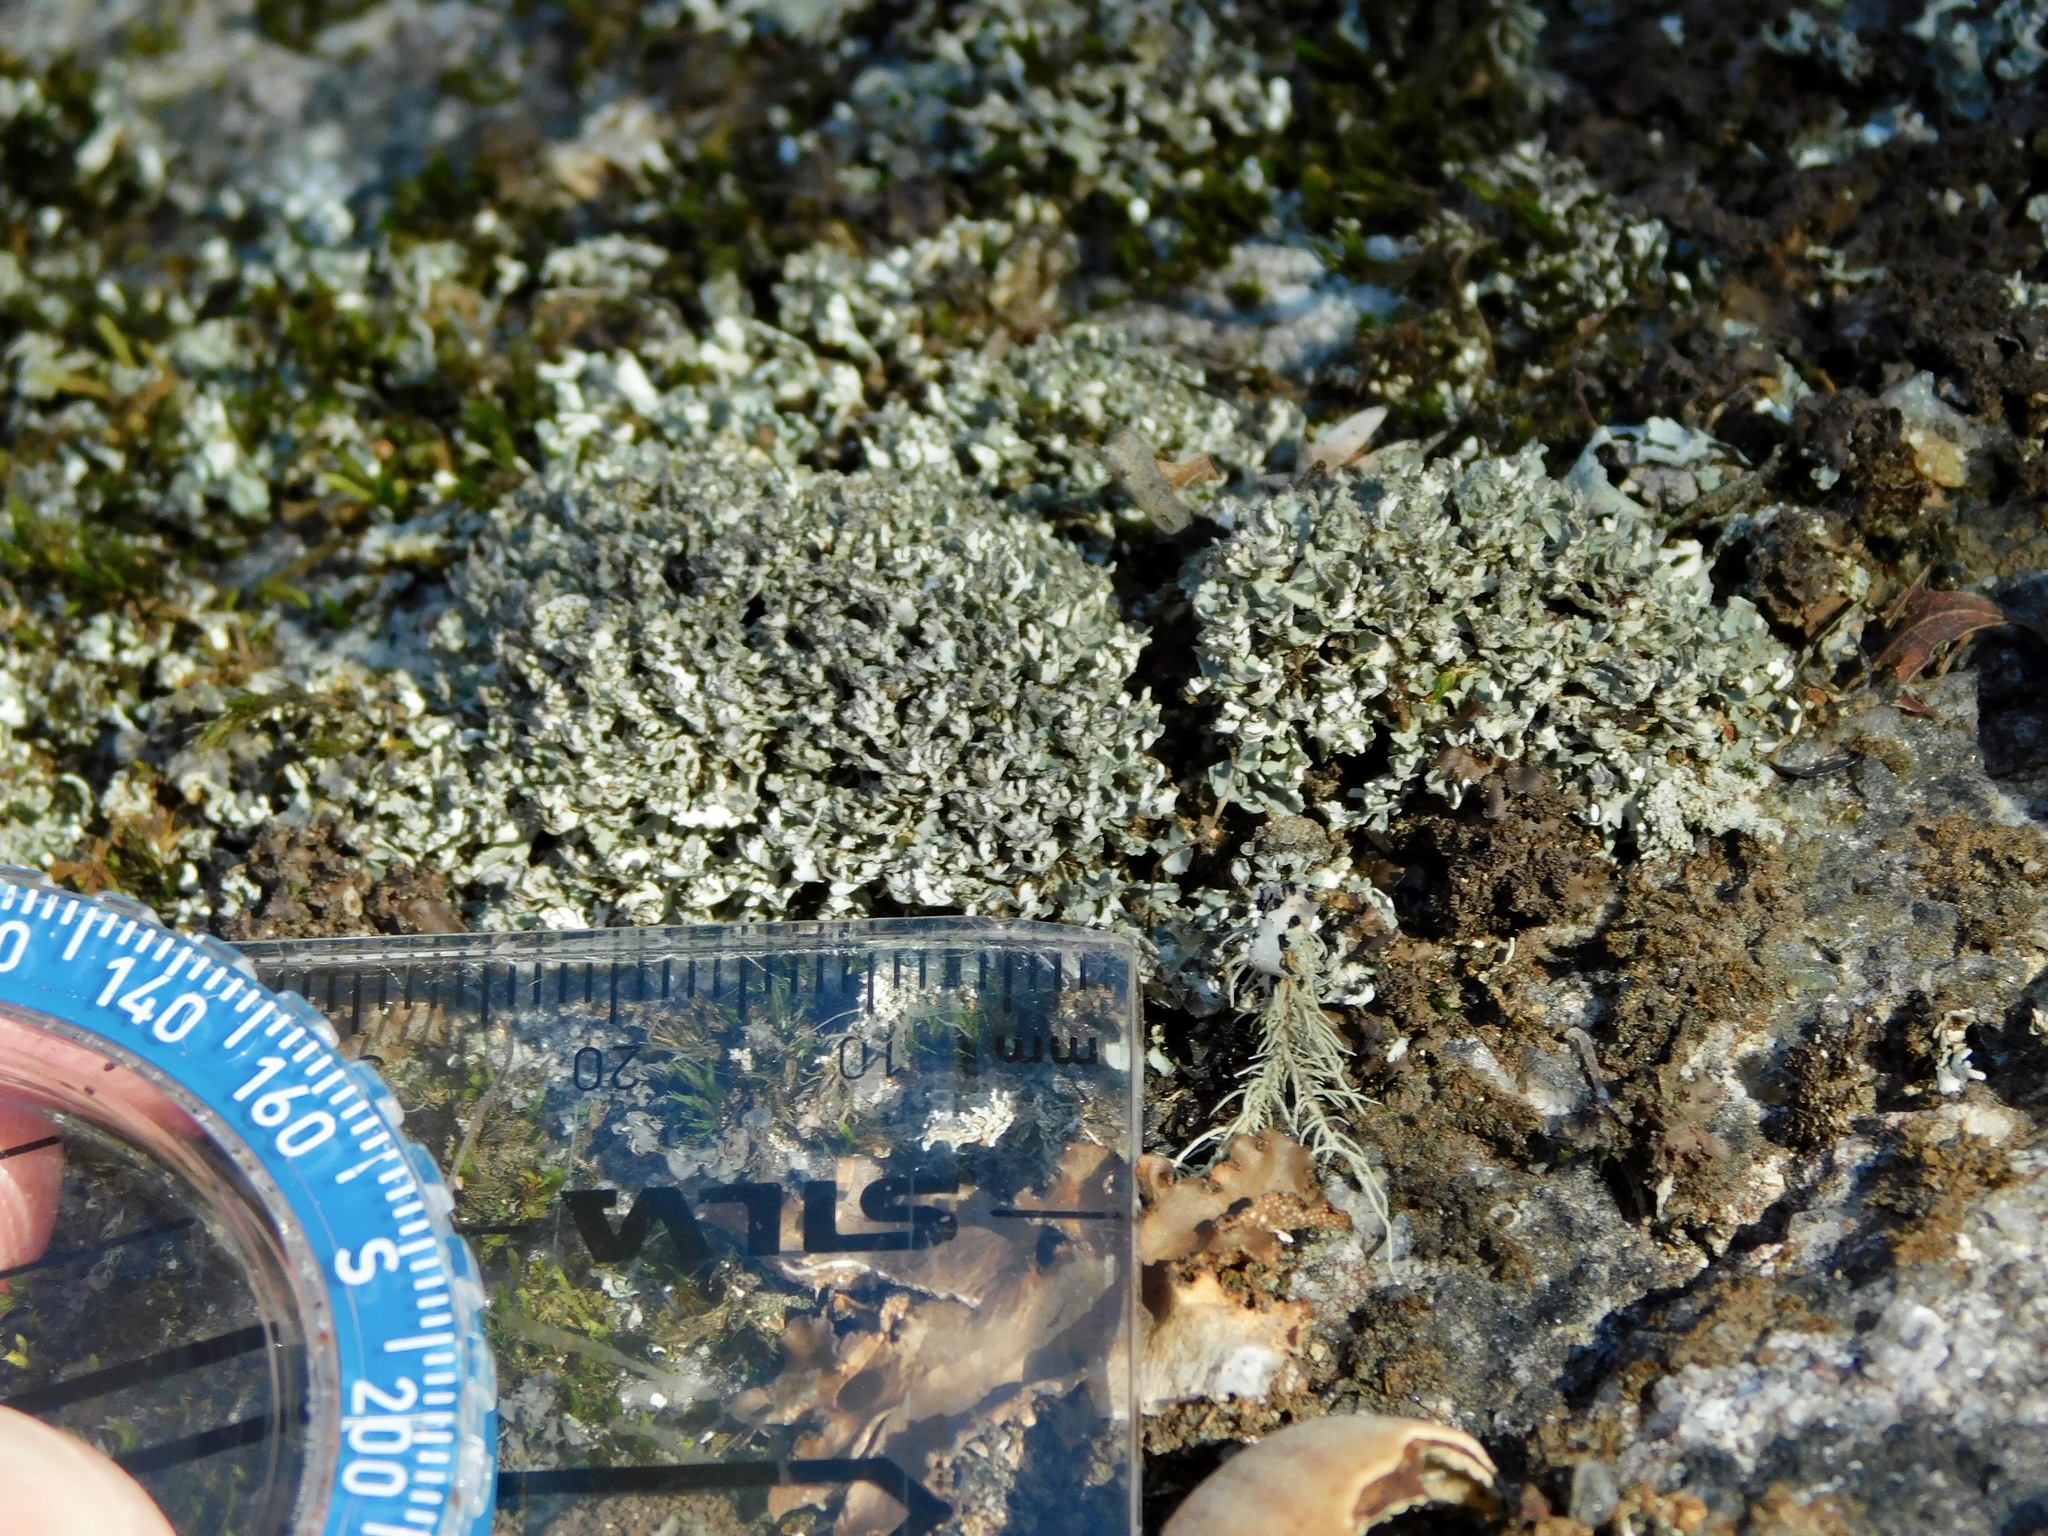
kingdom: Fungi
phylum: Ascomycota
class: Lecanoromycetes
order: Lecanorales
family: Cladoniaceae
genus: Cladonia
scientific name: Cladonia strepsilis
